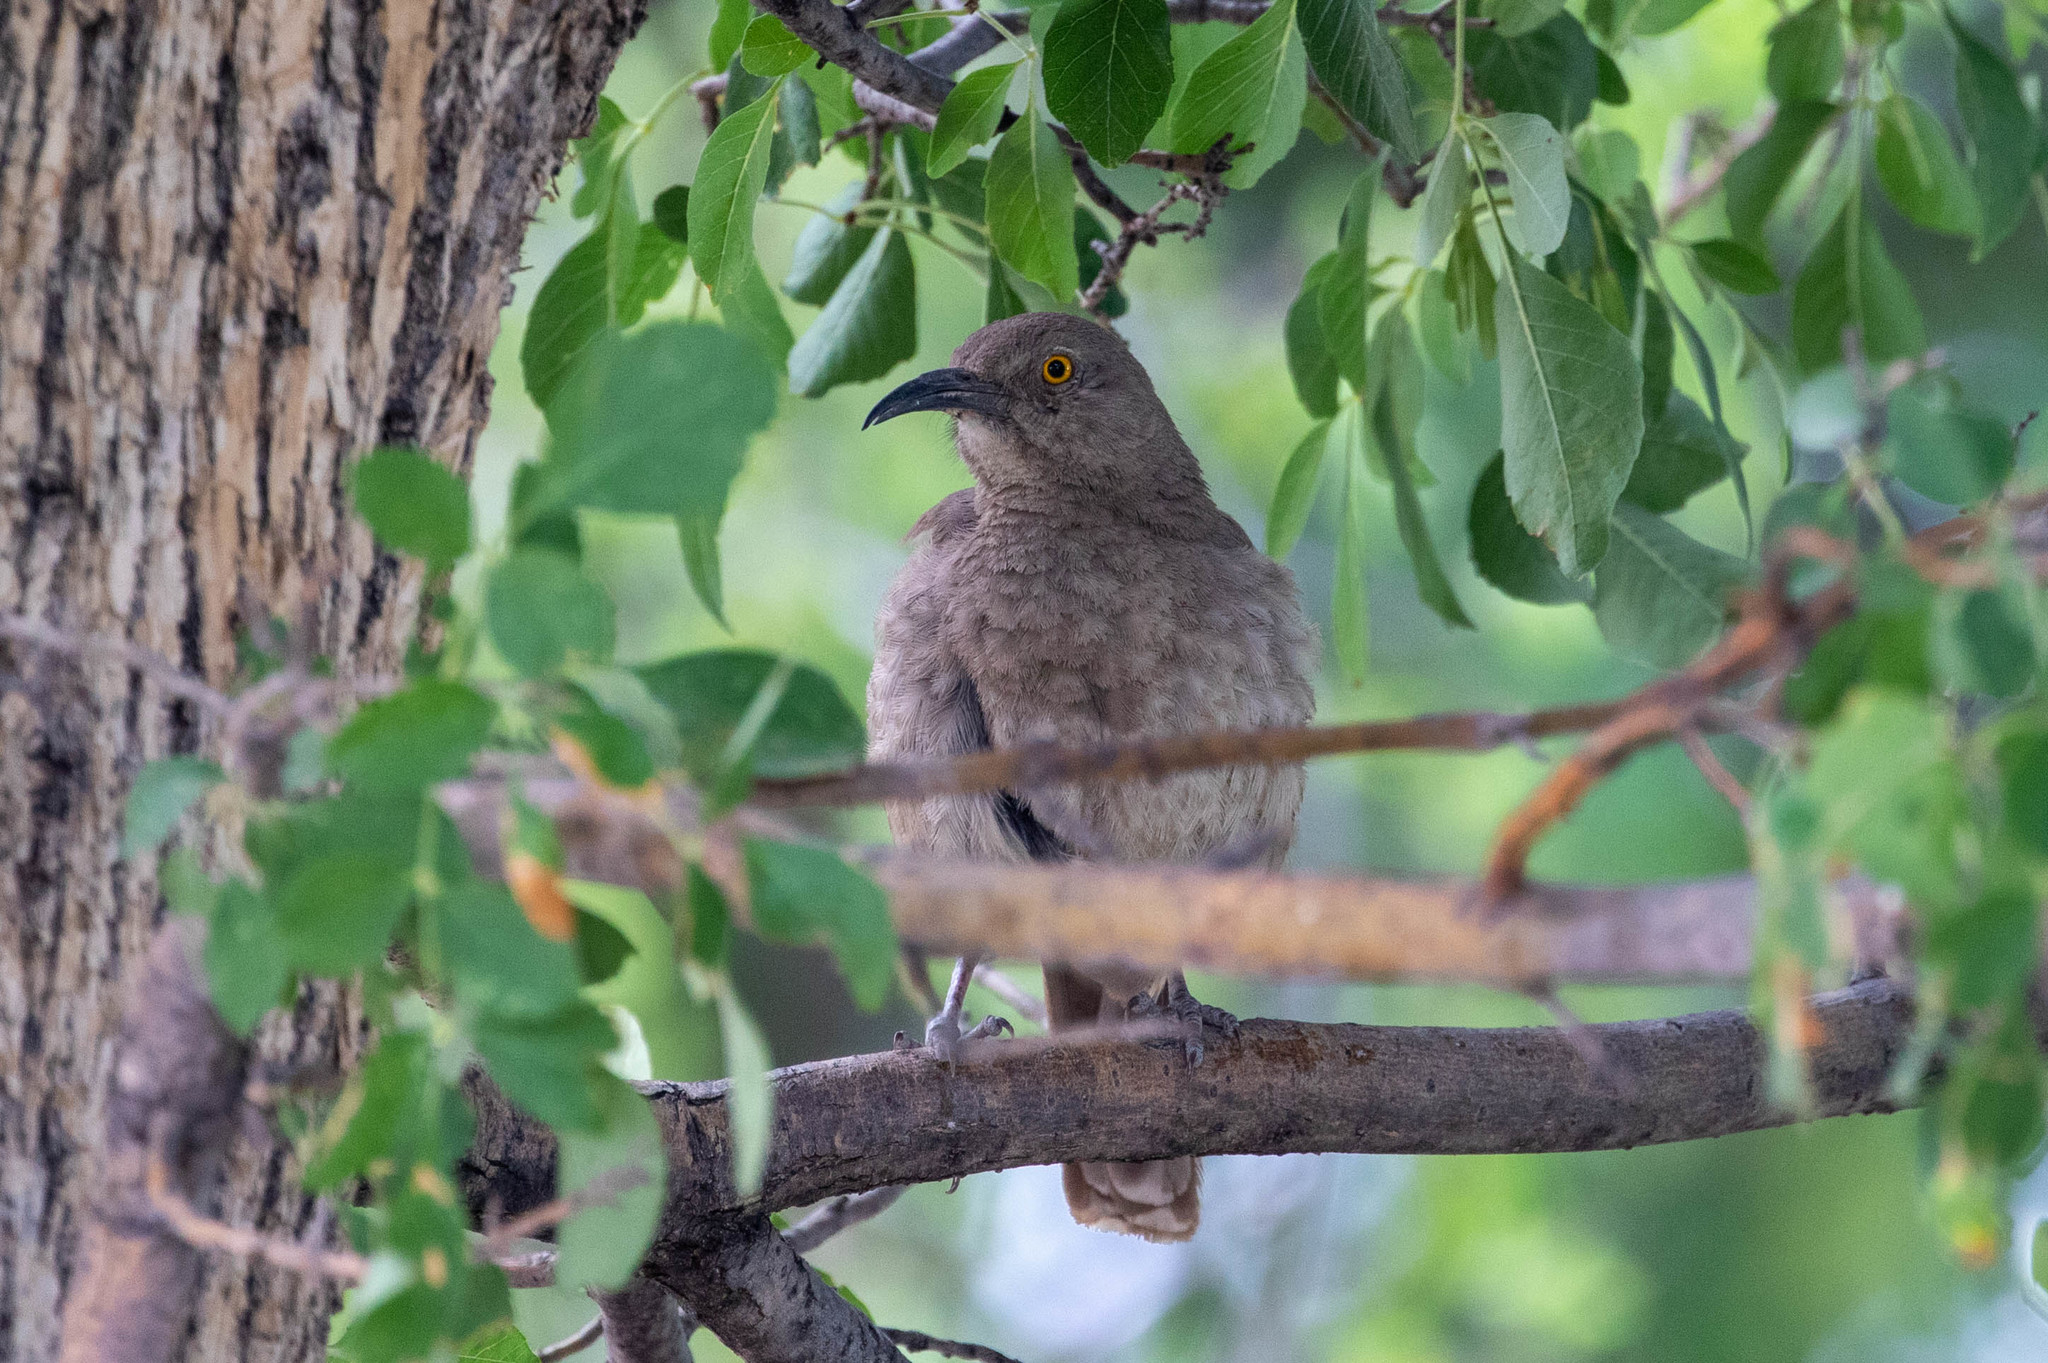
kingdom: Animalia
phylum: Chordata
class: Aves
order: Passeriformes
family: Mimidae
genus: Toxostoma
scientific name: Toxostoma curvirostre
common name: Curve-billed thrasher
